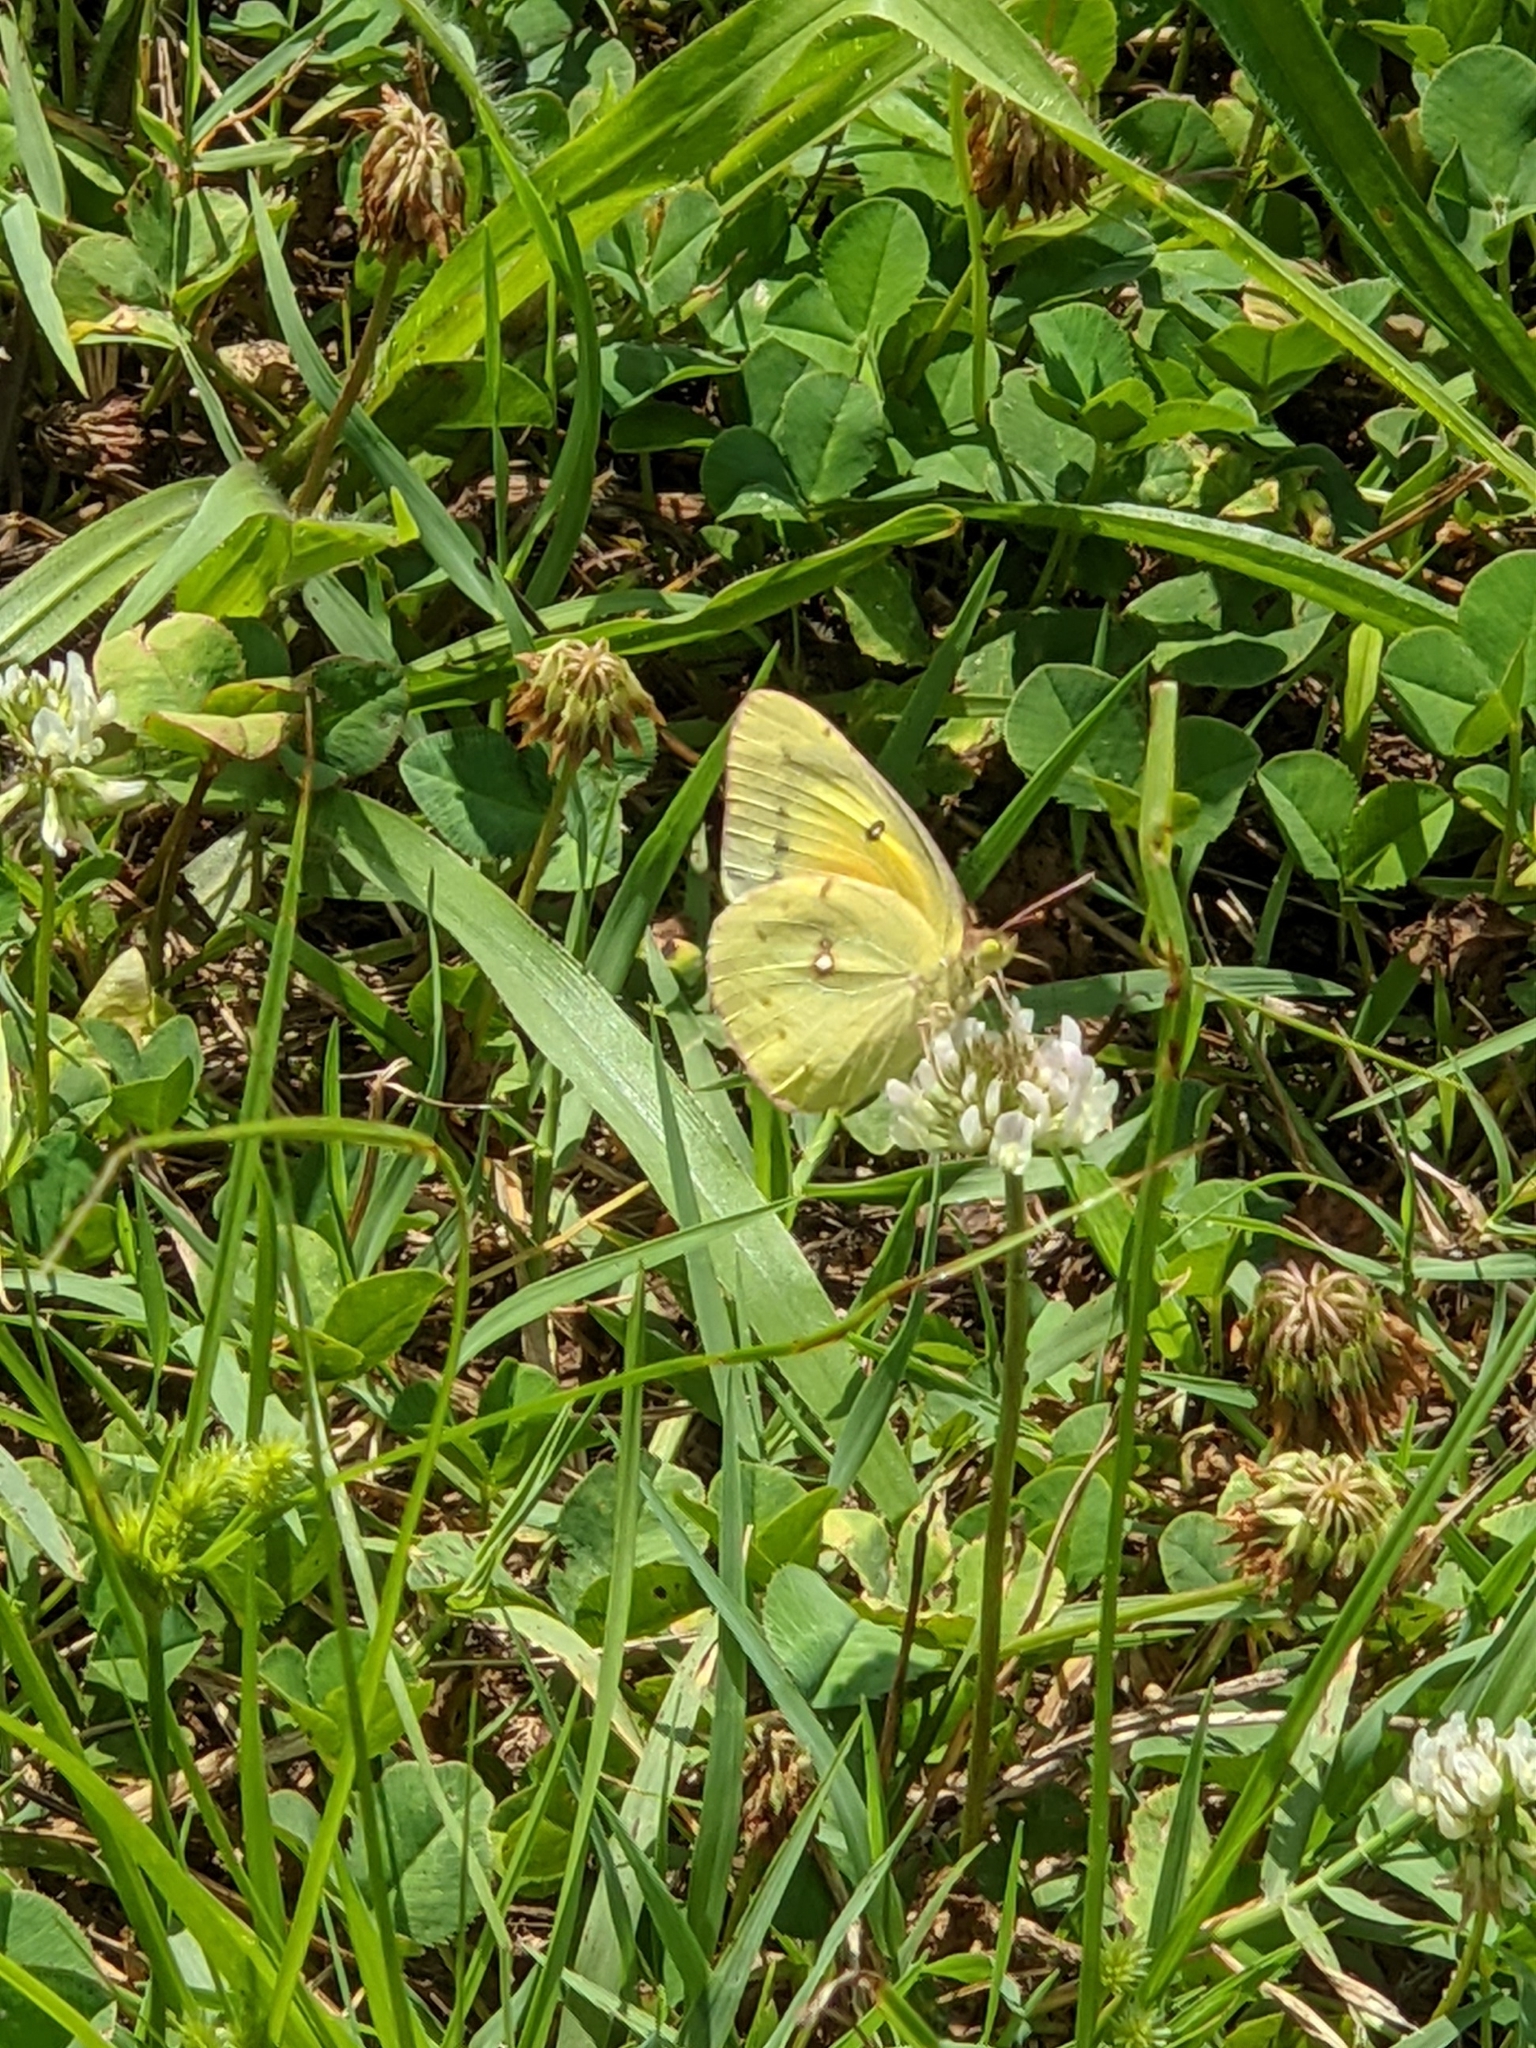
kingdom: Animalia
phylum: Arthropoda
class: Insecta
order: Lepidoptera
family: Pieridae
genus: Colias
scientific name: Colias eurytheme
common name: Alfalfa butterfly
